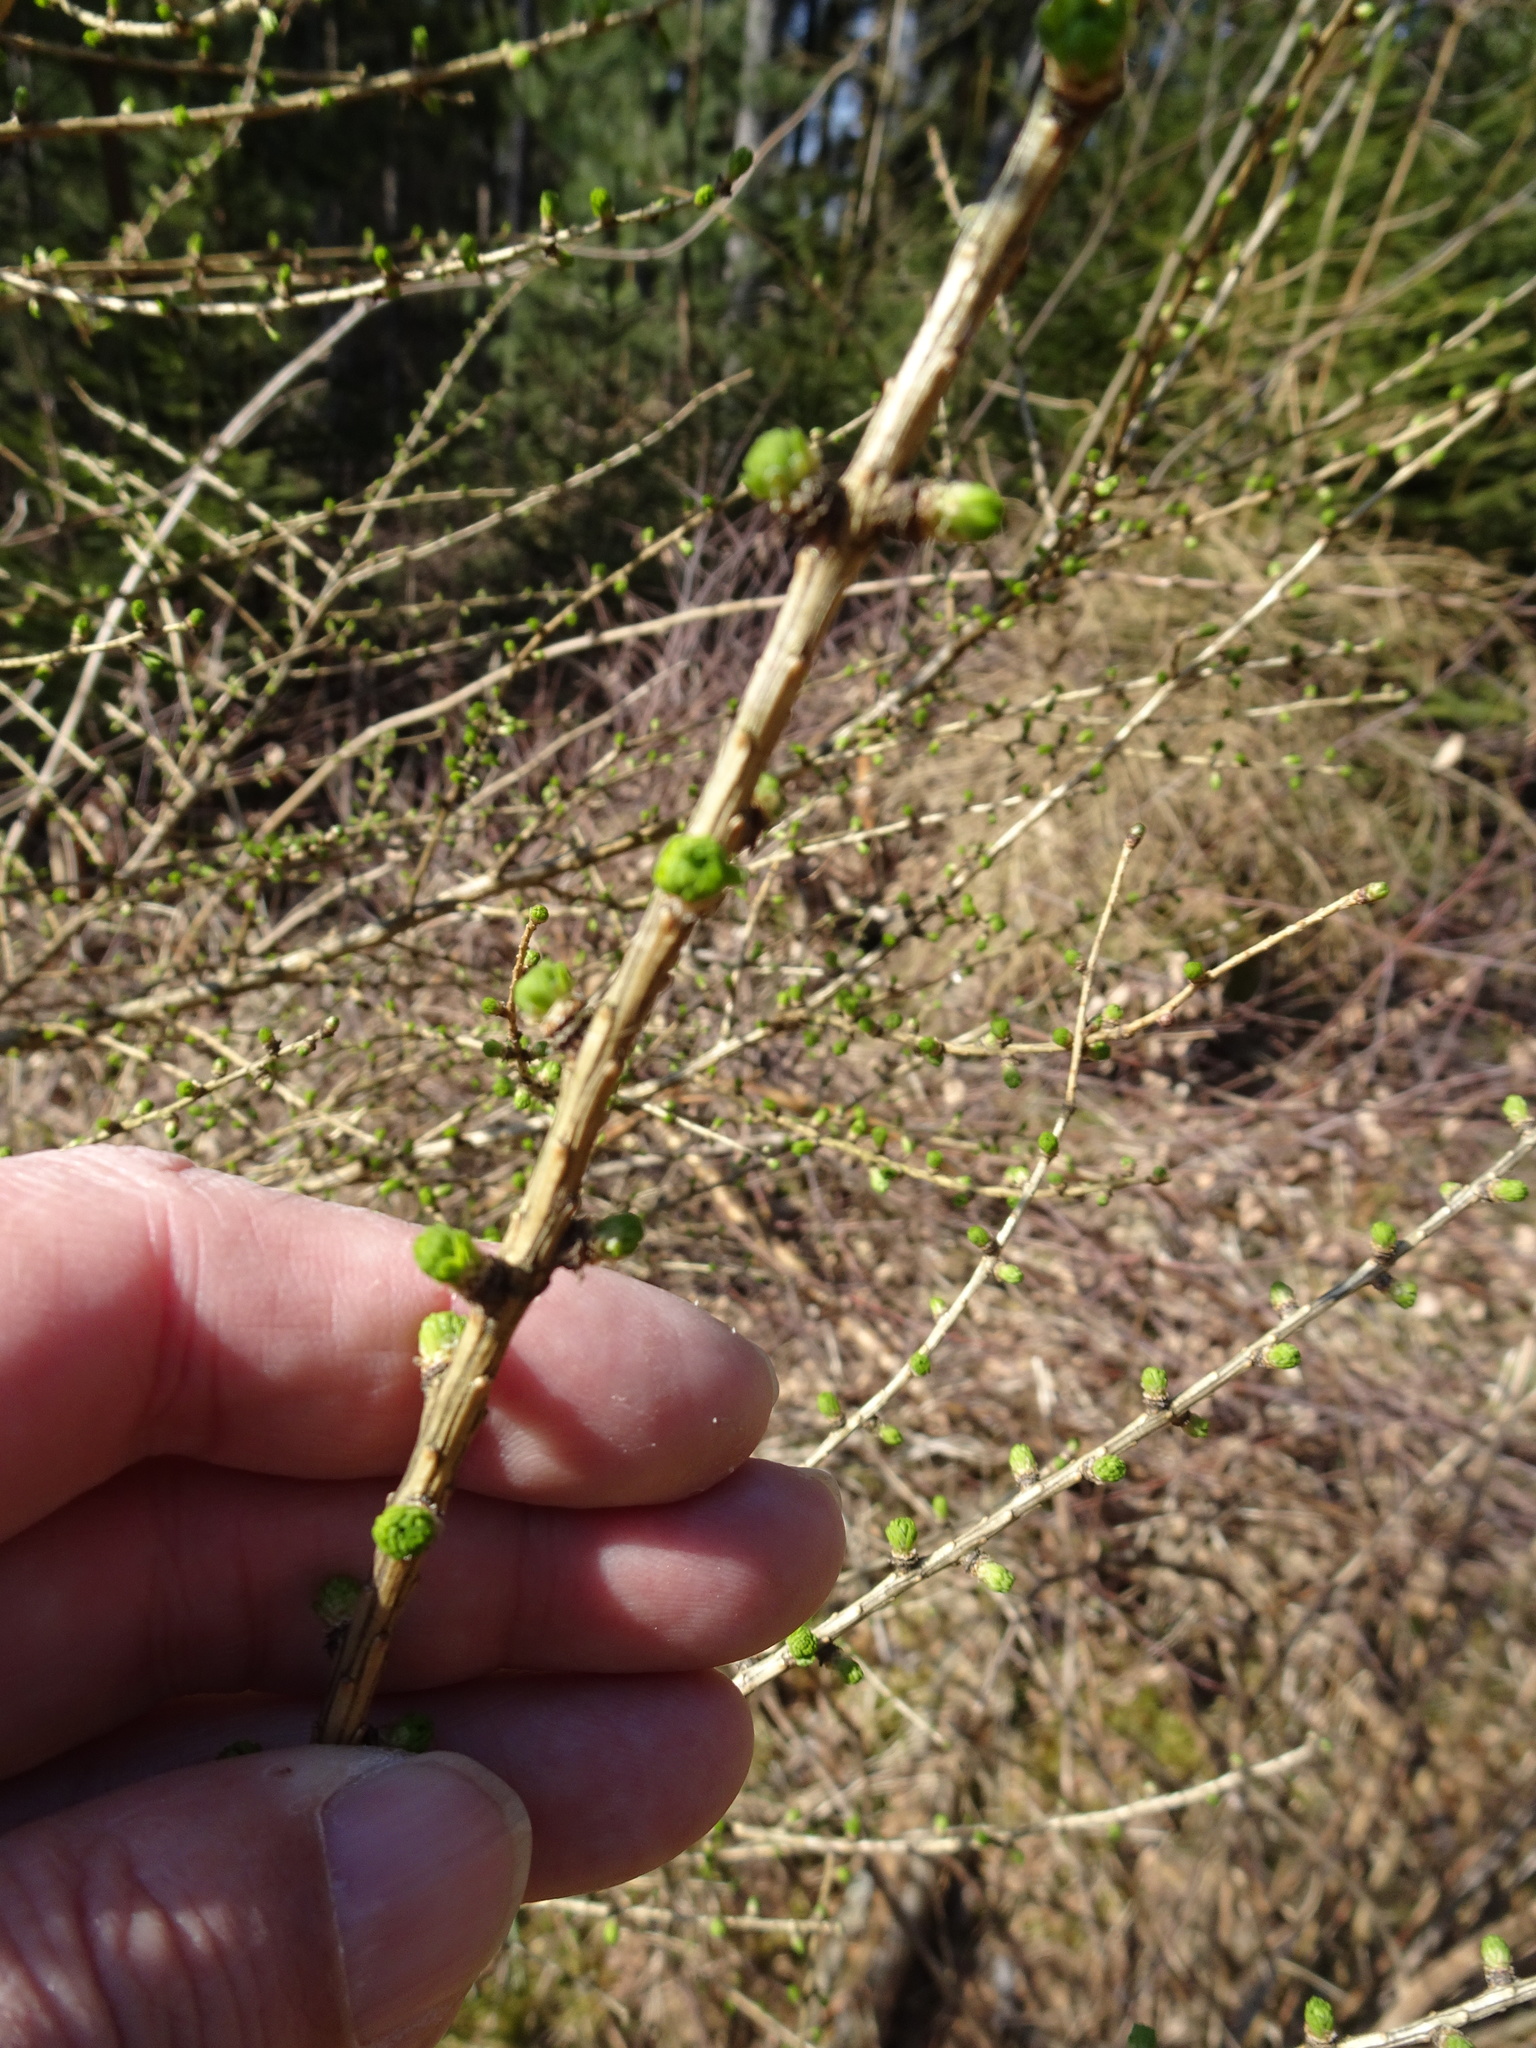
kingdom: Plantae
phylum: Tracheophyta
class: Pinopsida
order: Pinales
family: Pinaceae
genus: Larix
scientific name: Larix decidua
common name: European larch
